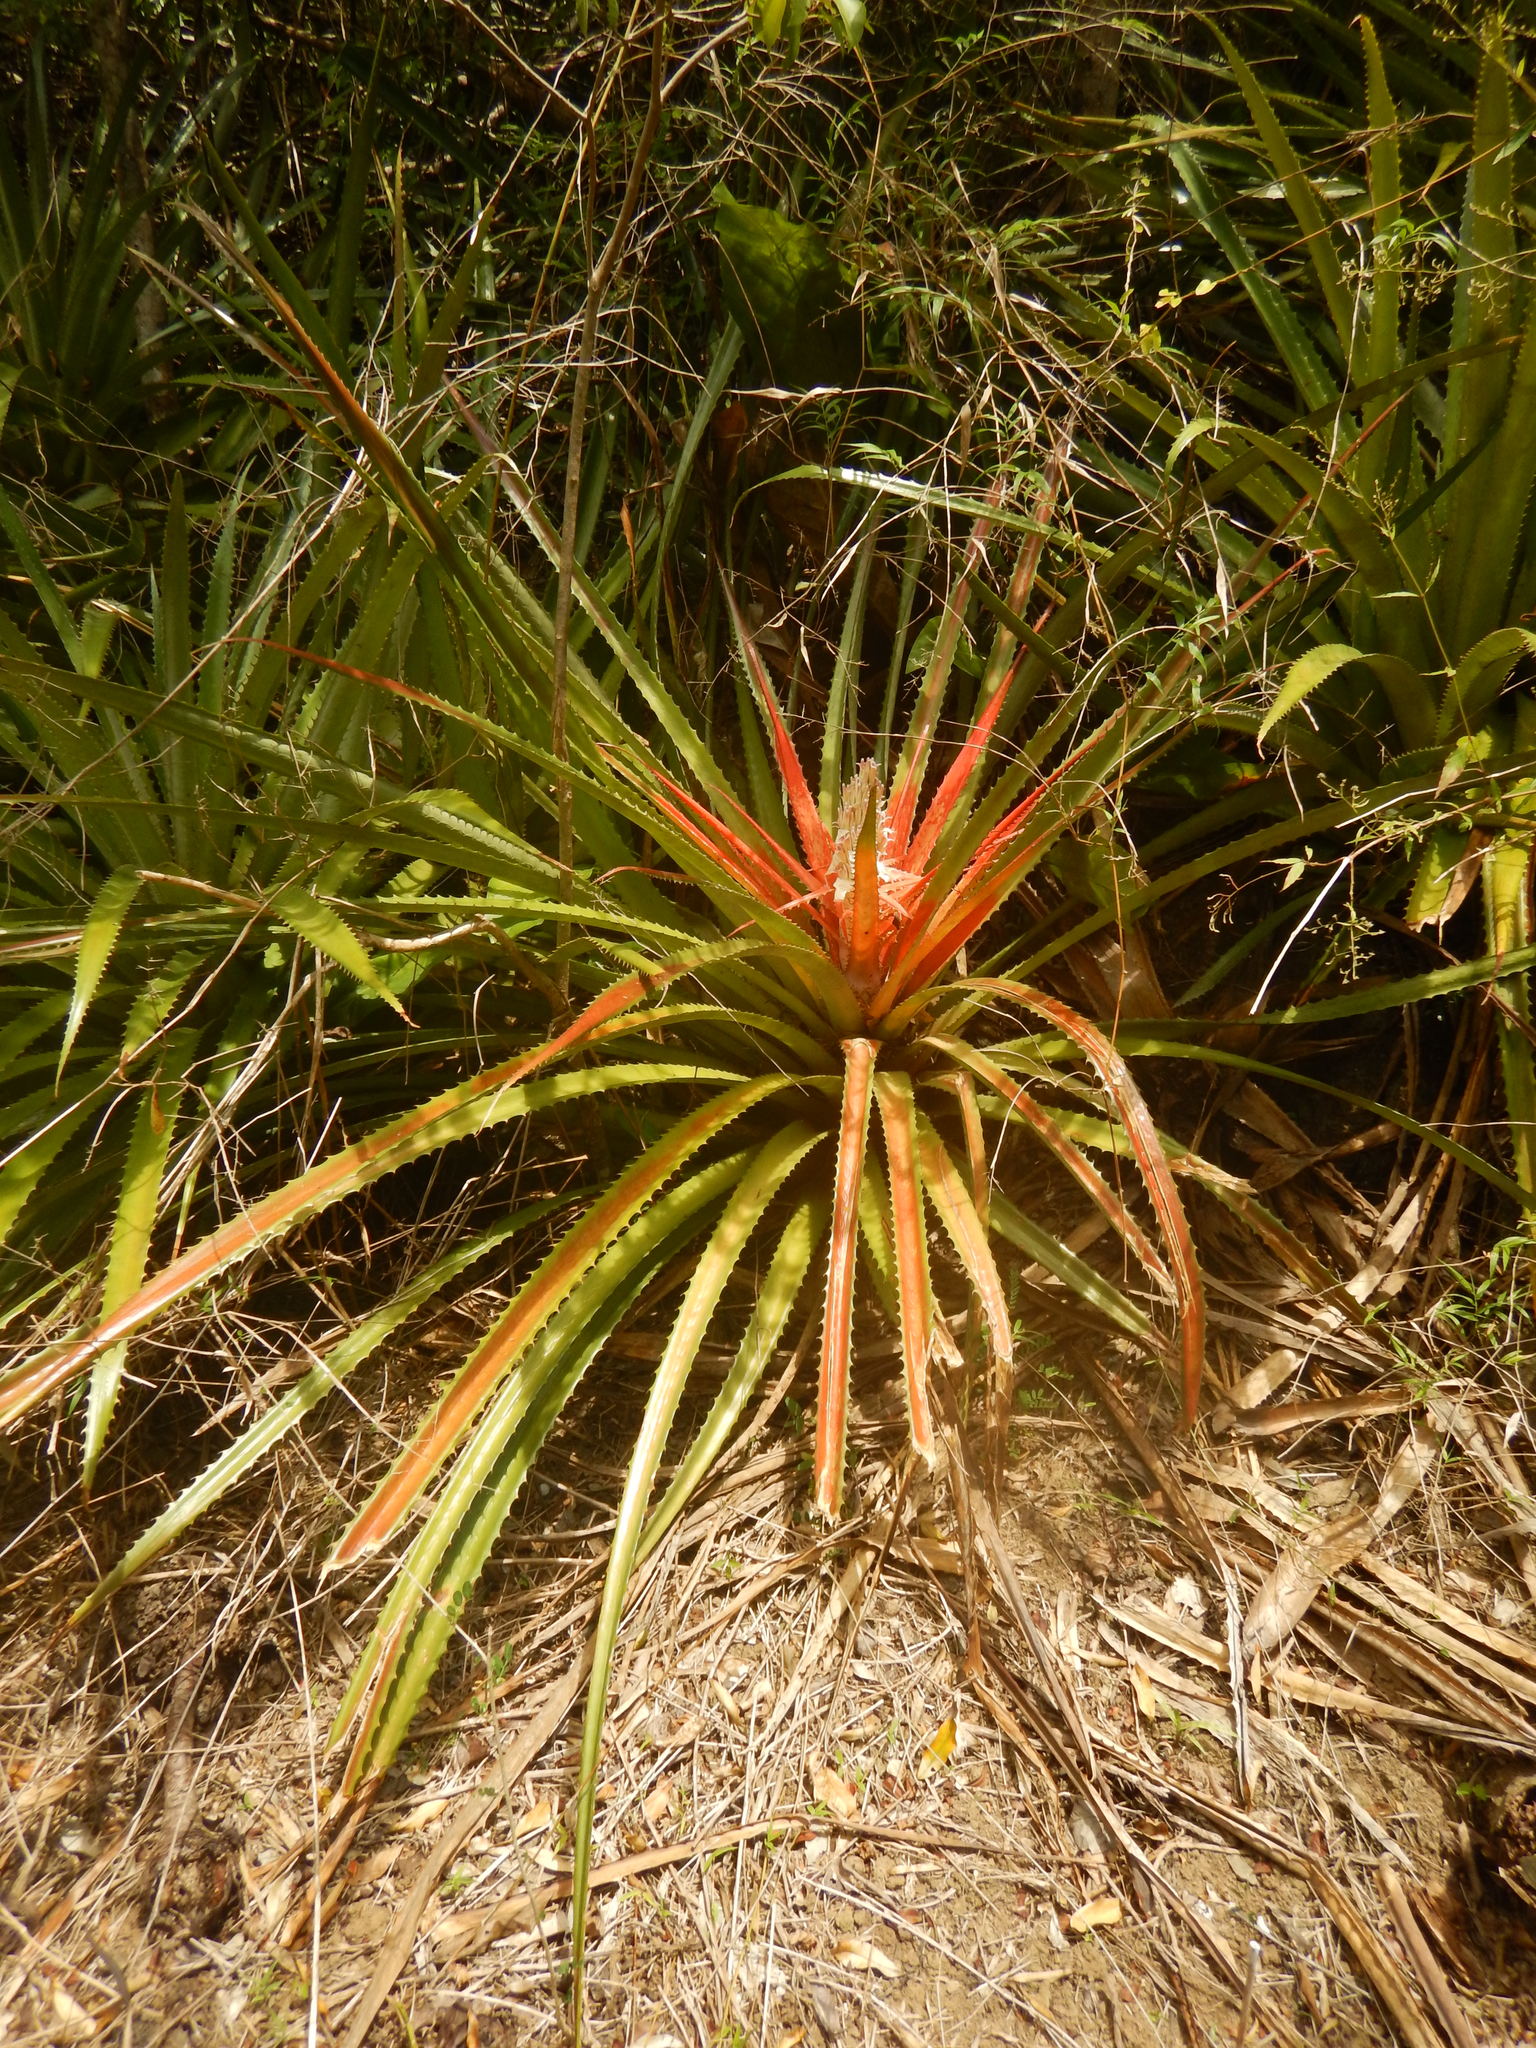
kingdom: Plantae
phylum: Tracheophyta
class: Liliopsida
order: Poales
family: Bromeliaceae
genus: Bromelia
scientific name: Bromelia pinguin
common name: Pinguin
